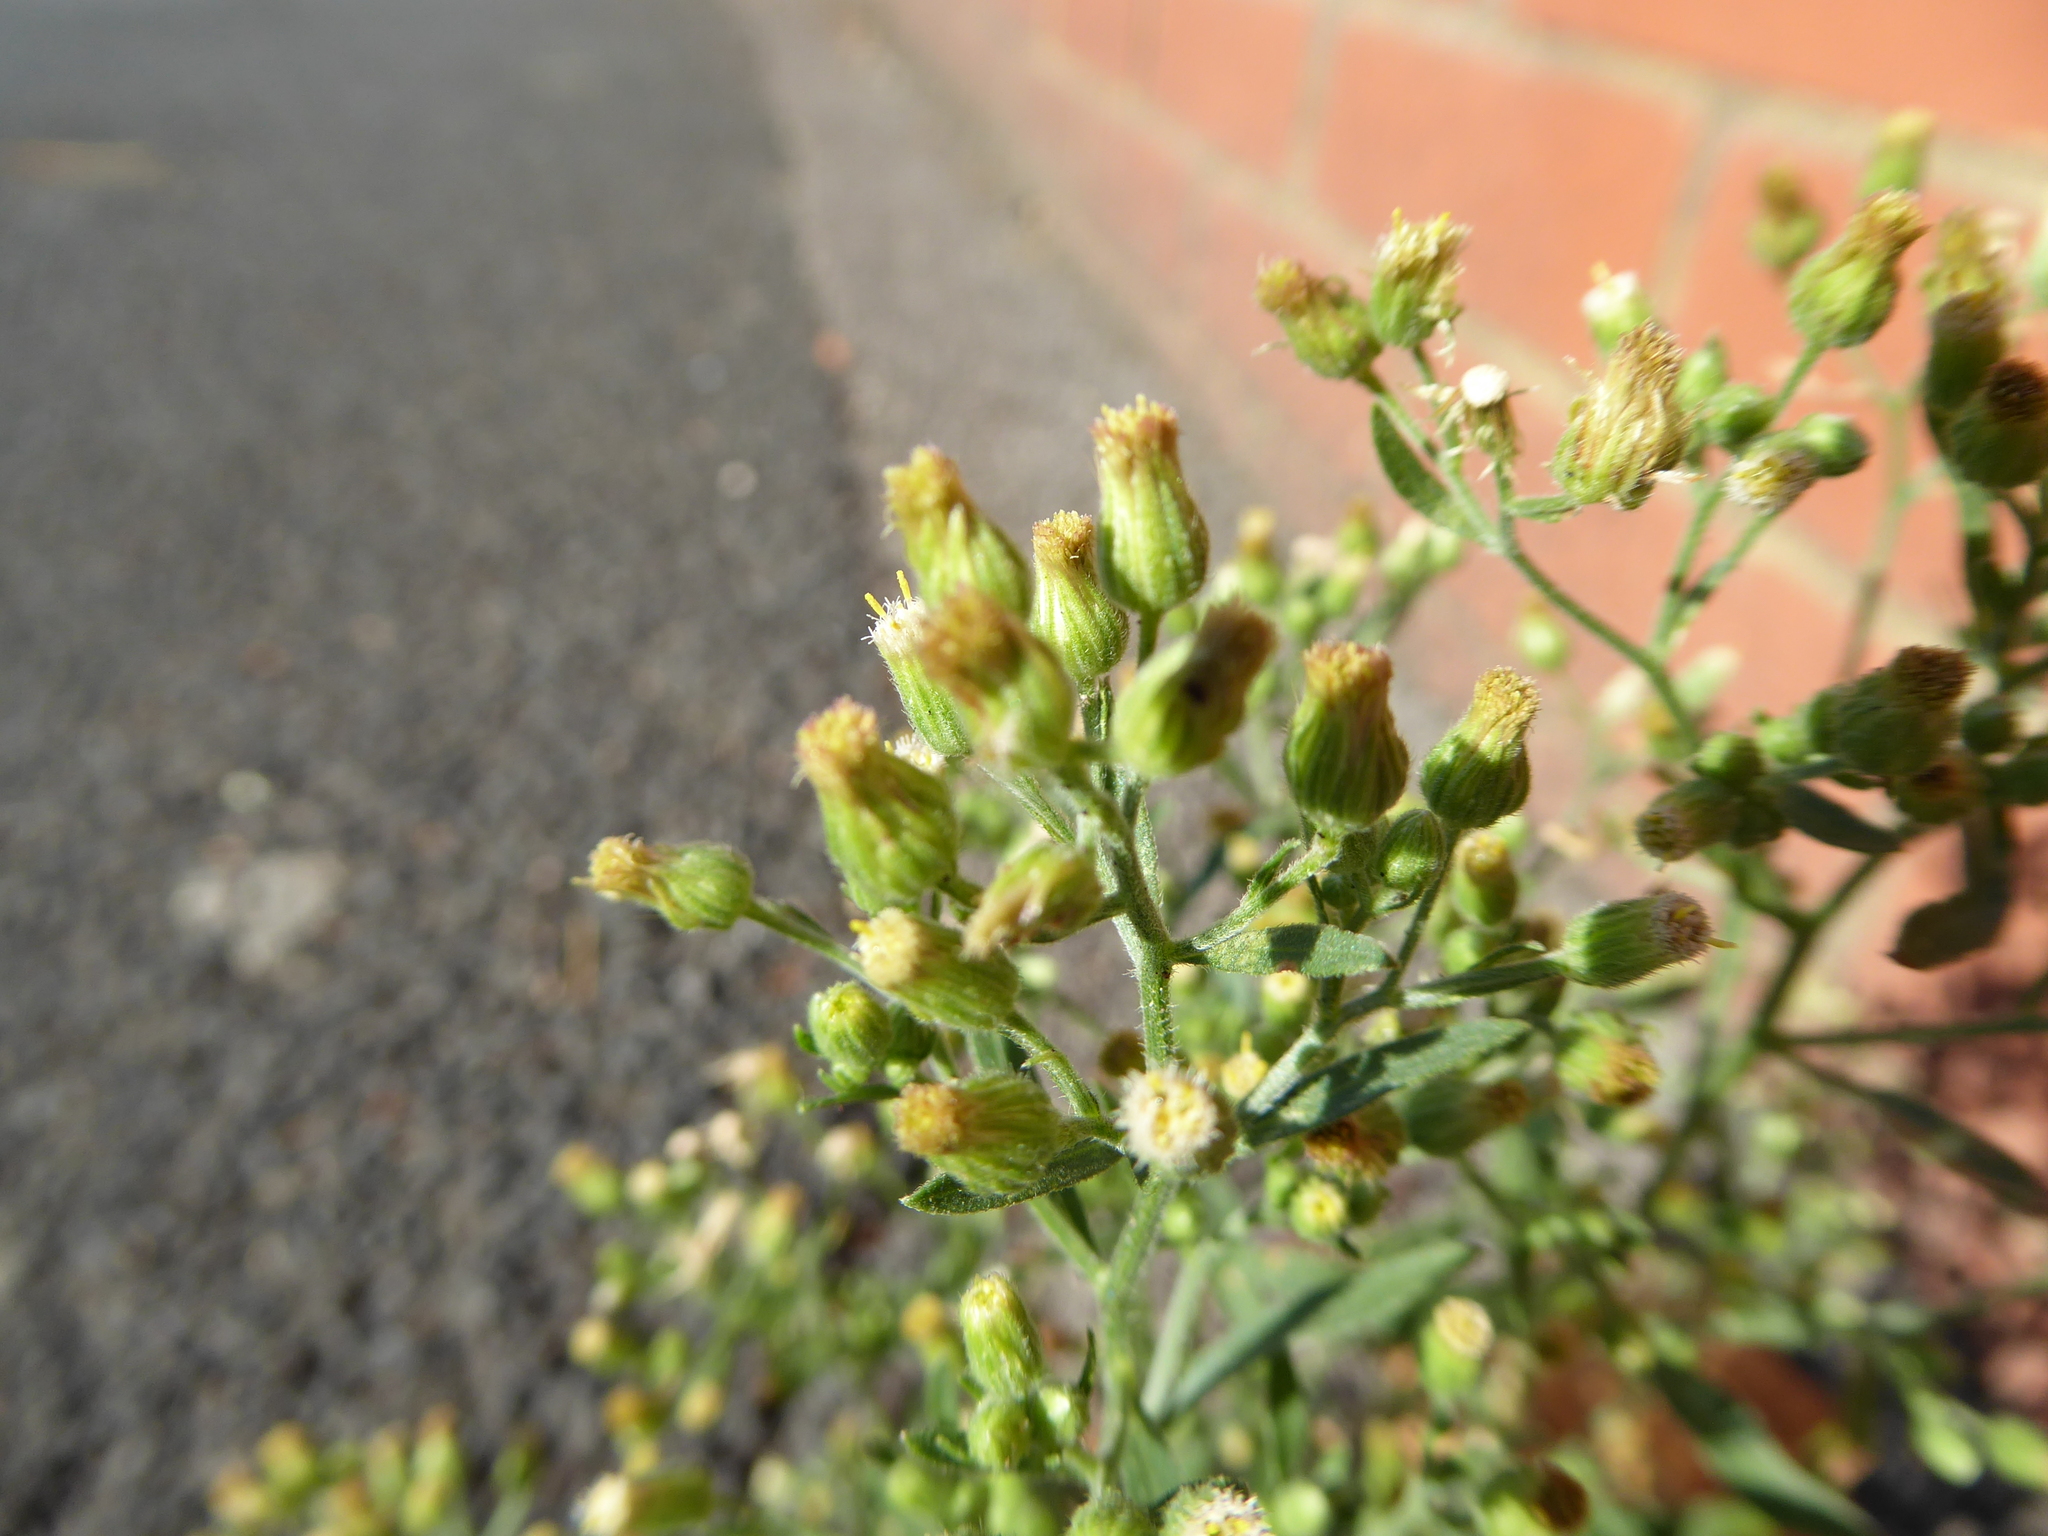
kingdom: Plantae
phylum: Tracheophyta
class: Magnoliopsida
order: Asterales
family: Asteraceae
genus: Erigeron
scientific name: Erigeron sumatrensis
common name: Daisy
